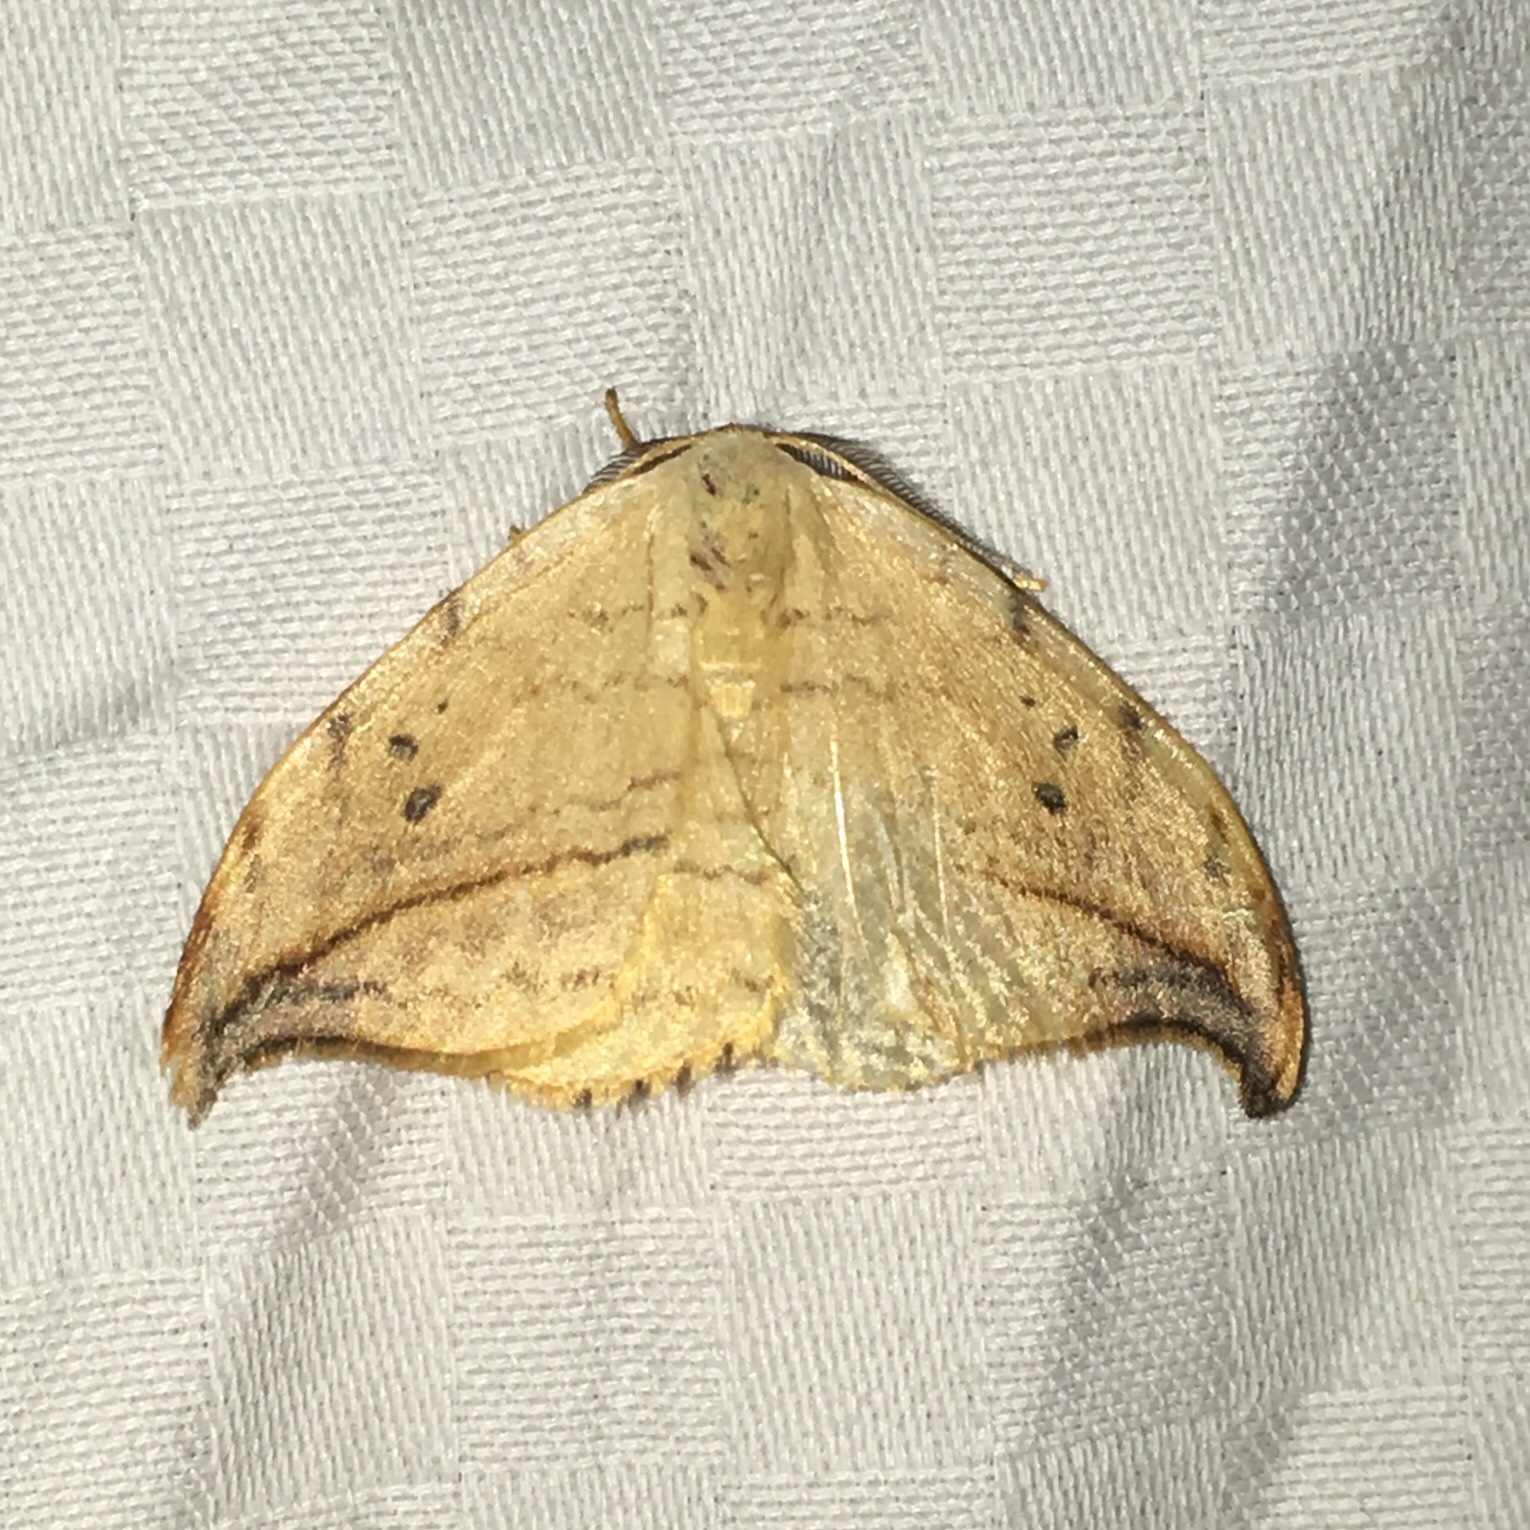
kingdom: Animalia
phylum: Arthropoda
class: Insecta
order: Lepidoptera
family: Drepanidae
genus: Drepana
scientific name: Drepana arcuata
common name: Arched hooktip moth
